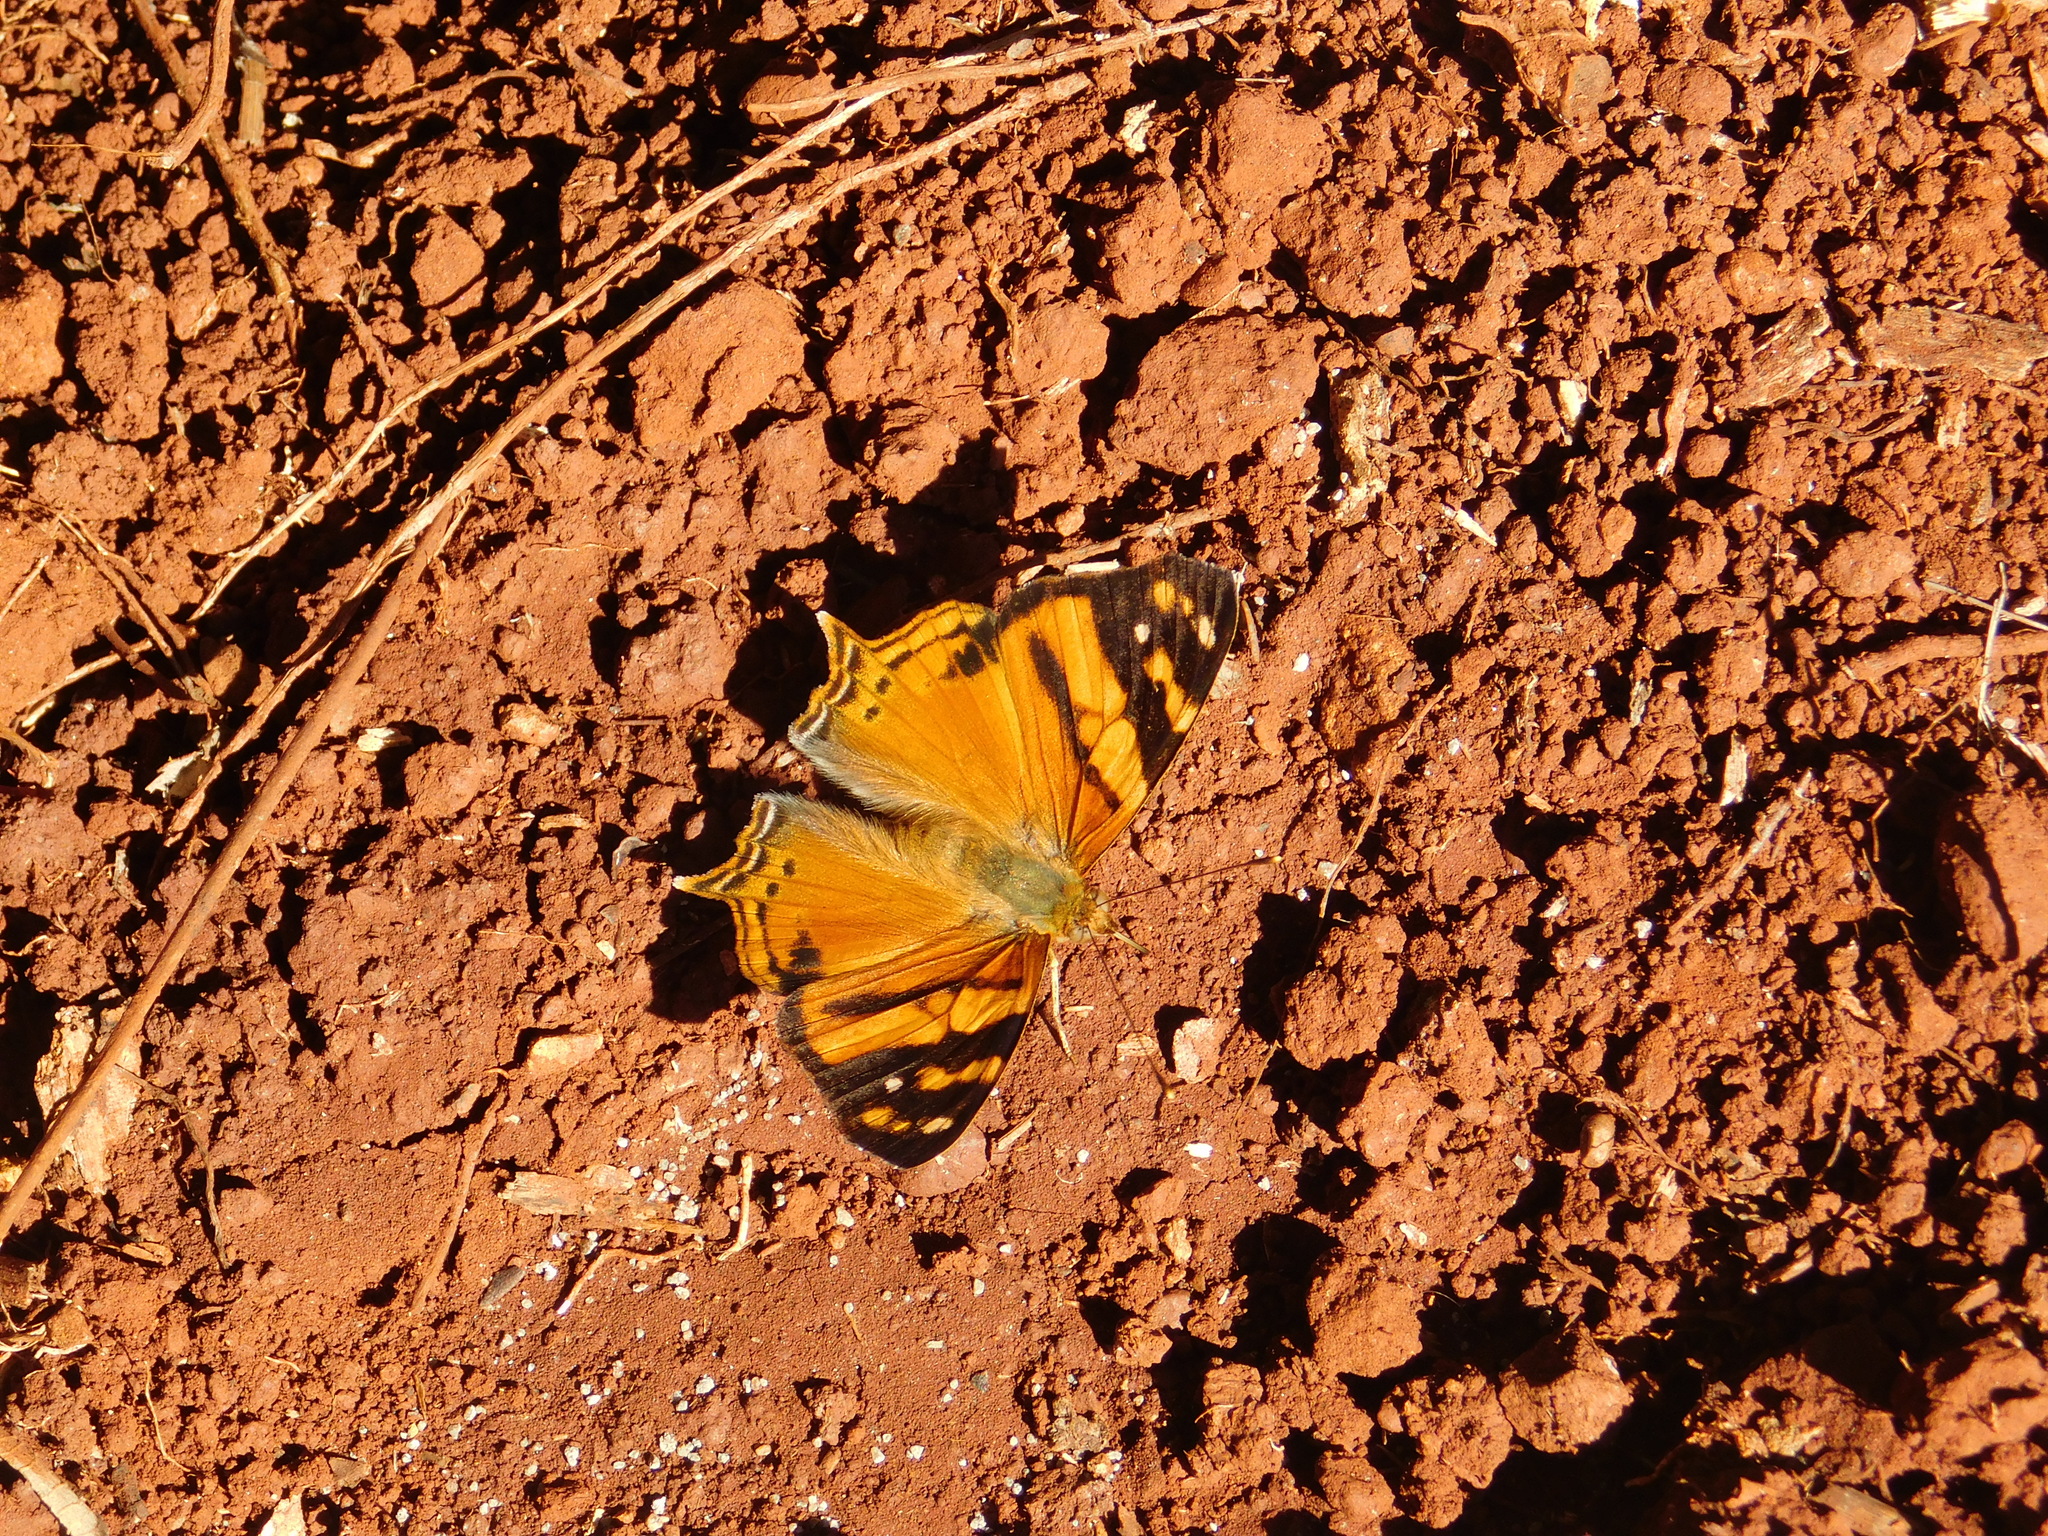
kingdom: Animalia
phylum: Arthropoda
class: Insecta
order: Lepidoptera
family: Nymphalidae
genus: Hypanartia
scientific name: Hypanartia lethe
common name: Orange mapwing
